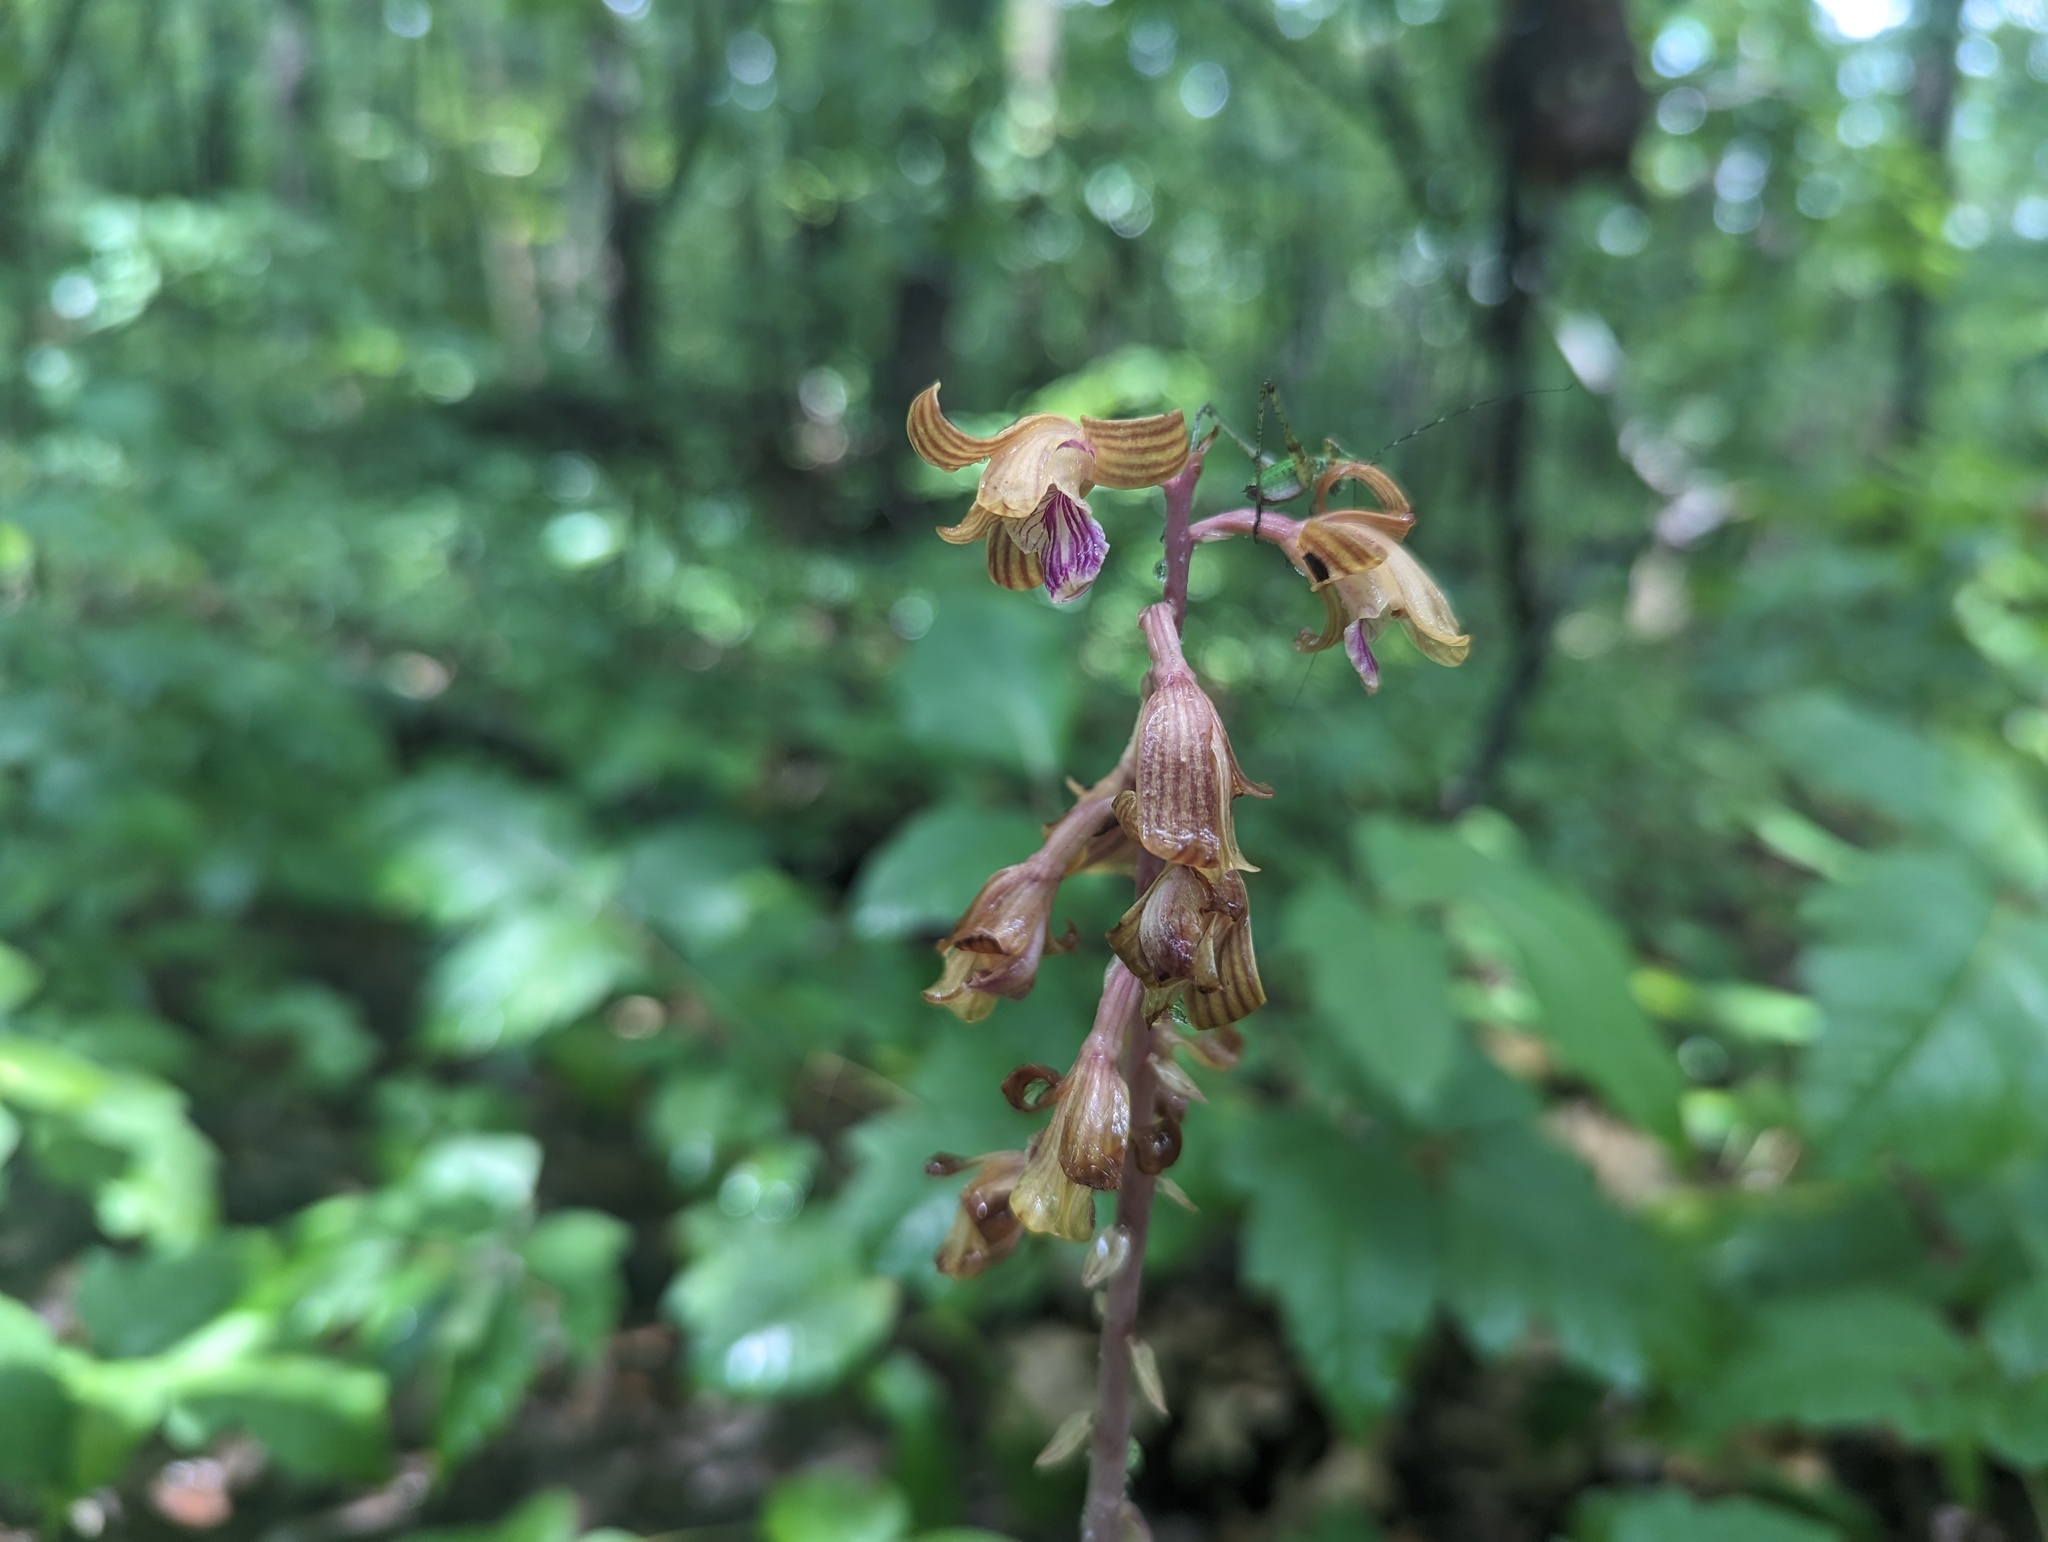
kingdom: Plantae
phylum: Tracheophyta
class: Liliopsida
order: Asparagales
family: Orchidaceae
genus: Bletia
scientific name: Bletia spicata
